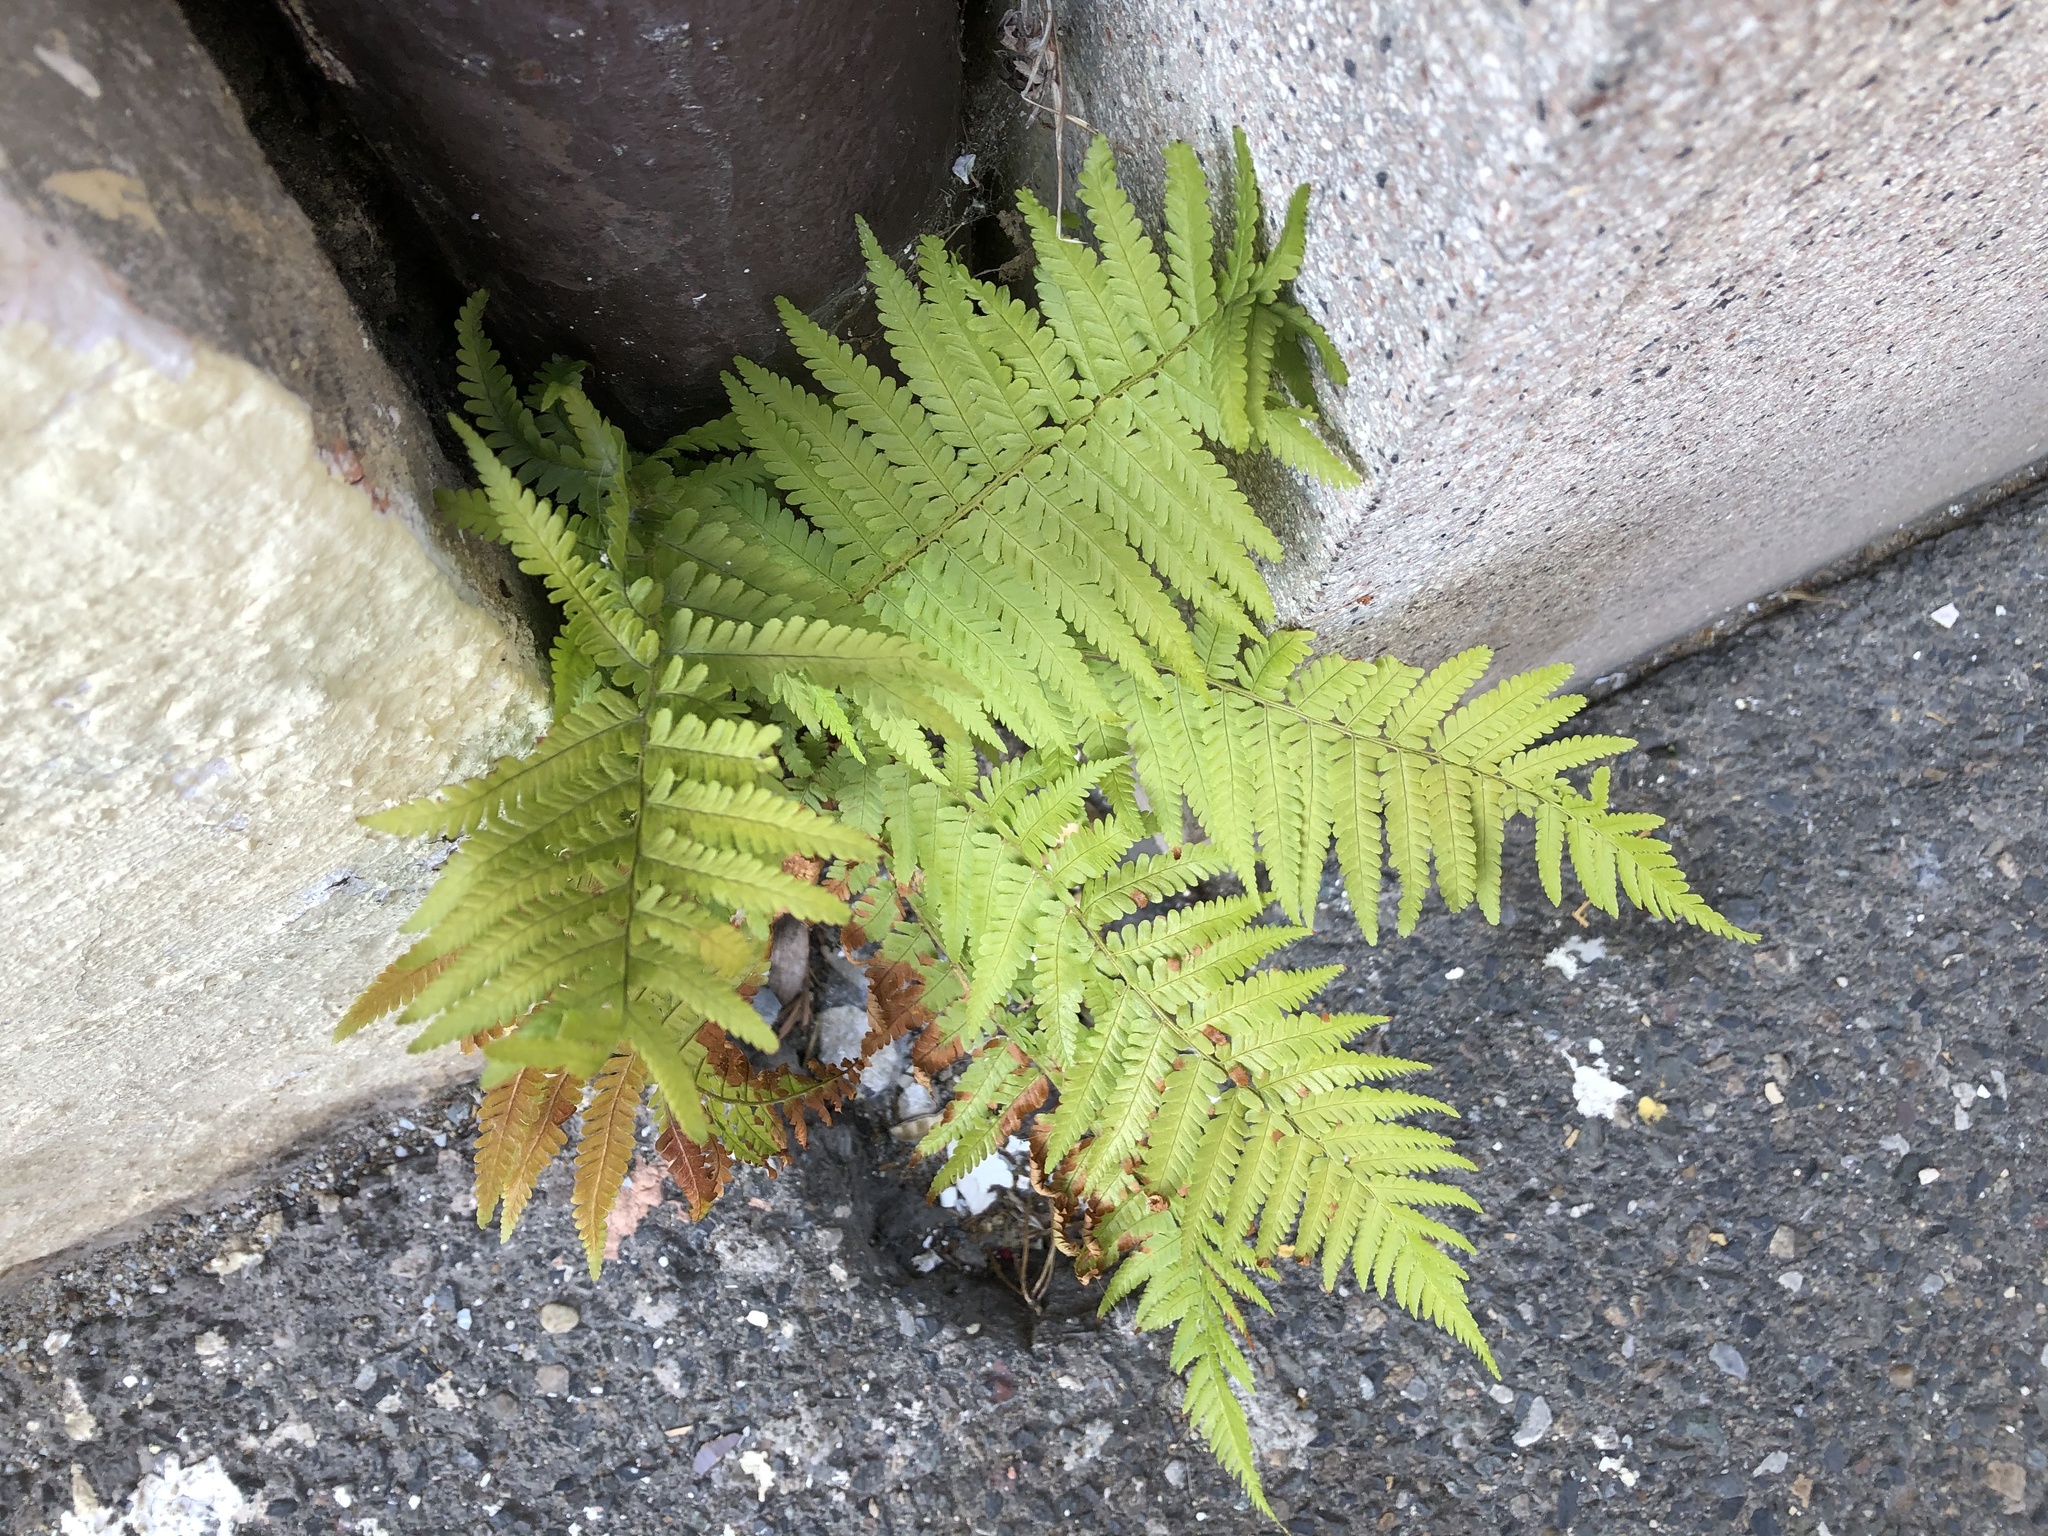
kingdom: Plantae
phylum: Tracheophyta
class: Polypodiopsida
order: Polypodiales
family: Dryopteridaceae
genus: Dryopteris
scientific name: Dryopteris filix-mas
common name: Male fern
